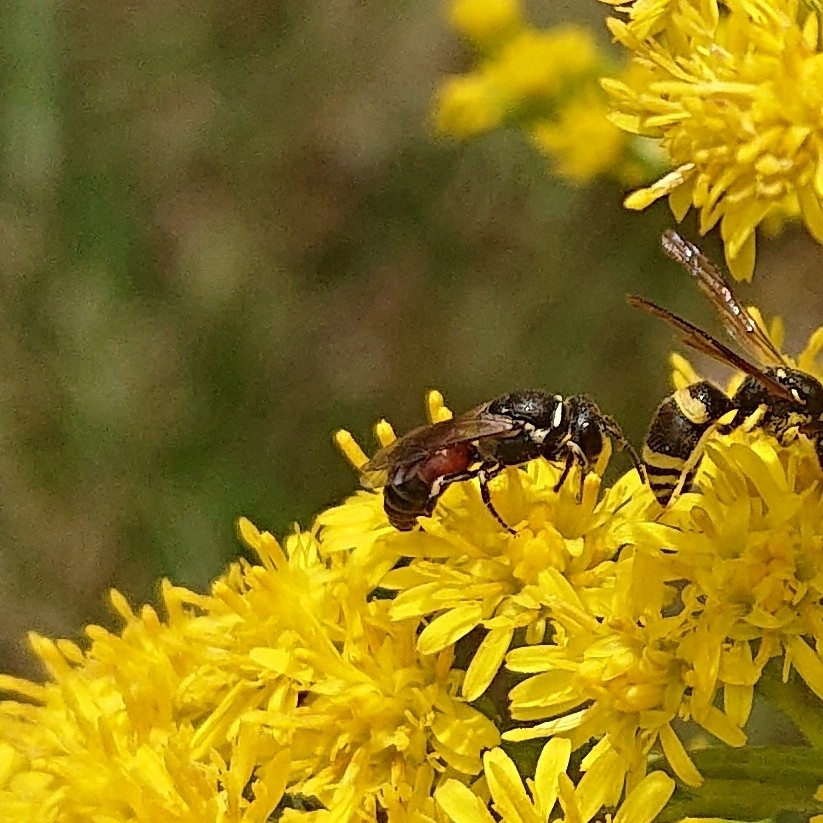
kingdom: Animalia
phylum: Arthropoda
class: Insecta
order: Hymenoptera
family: Colletidae
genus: Hylaeus
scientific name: Hylaeus variegatus
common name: Masked bee
